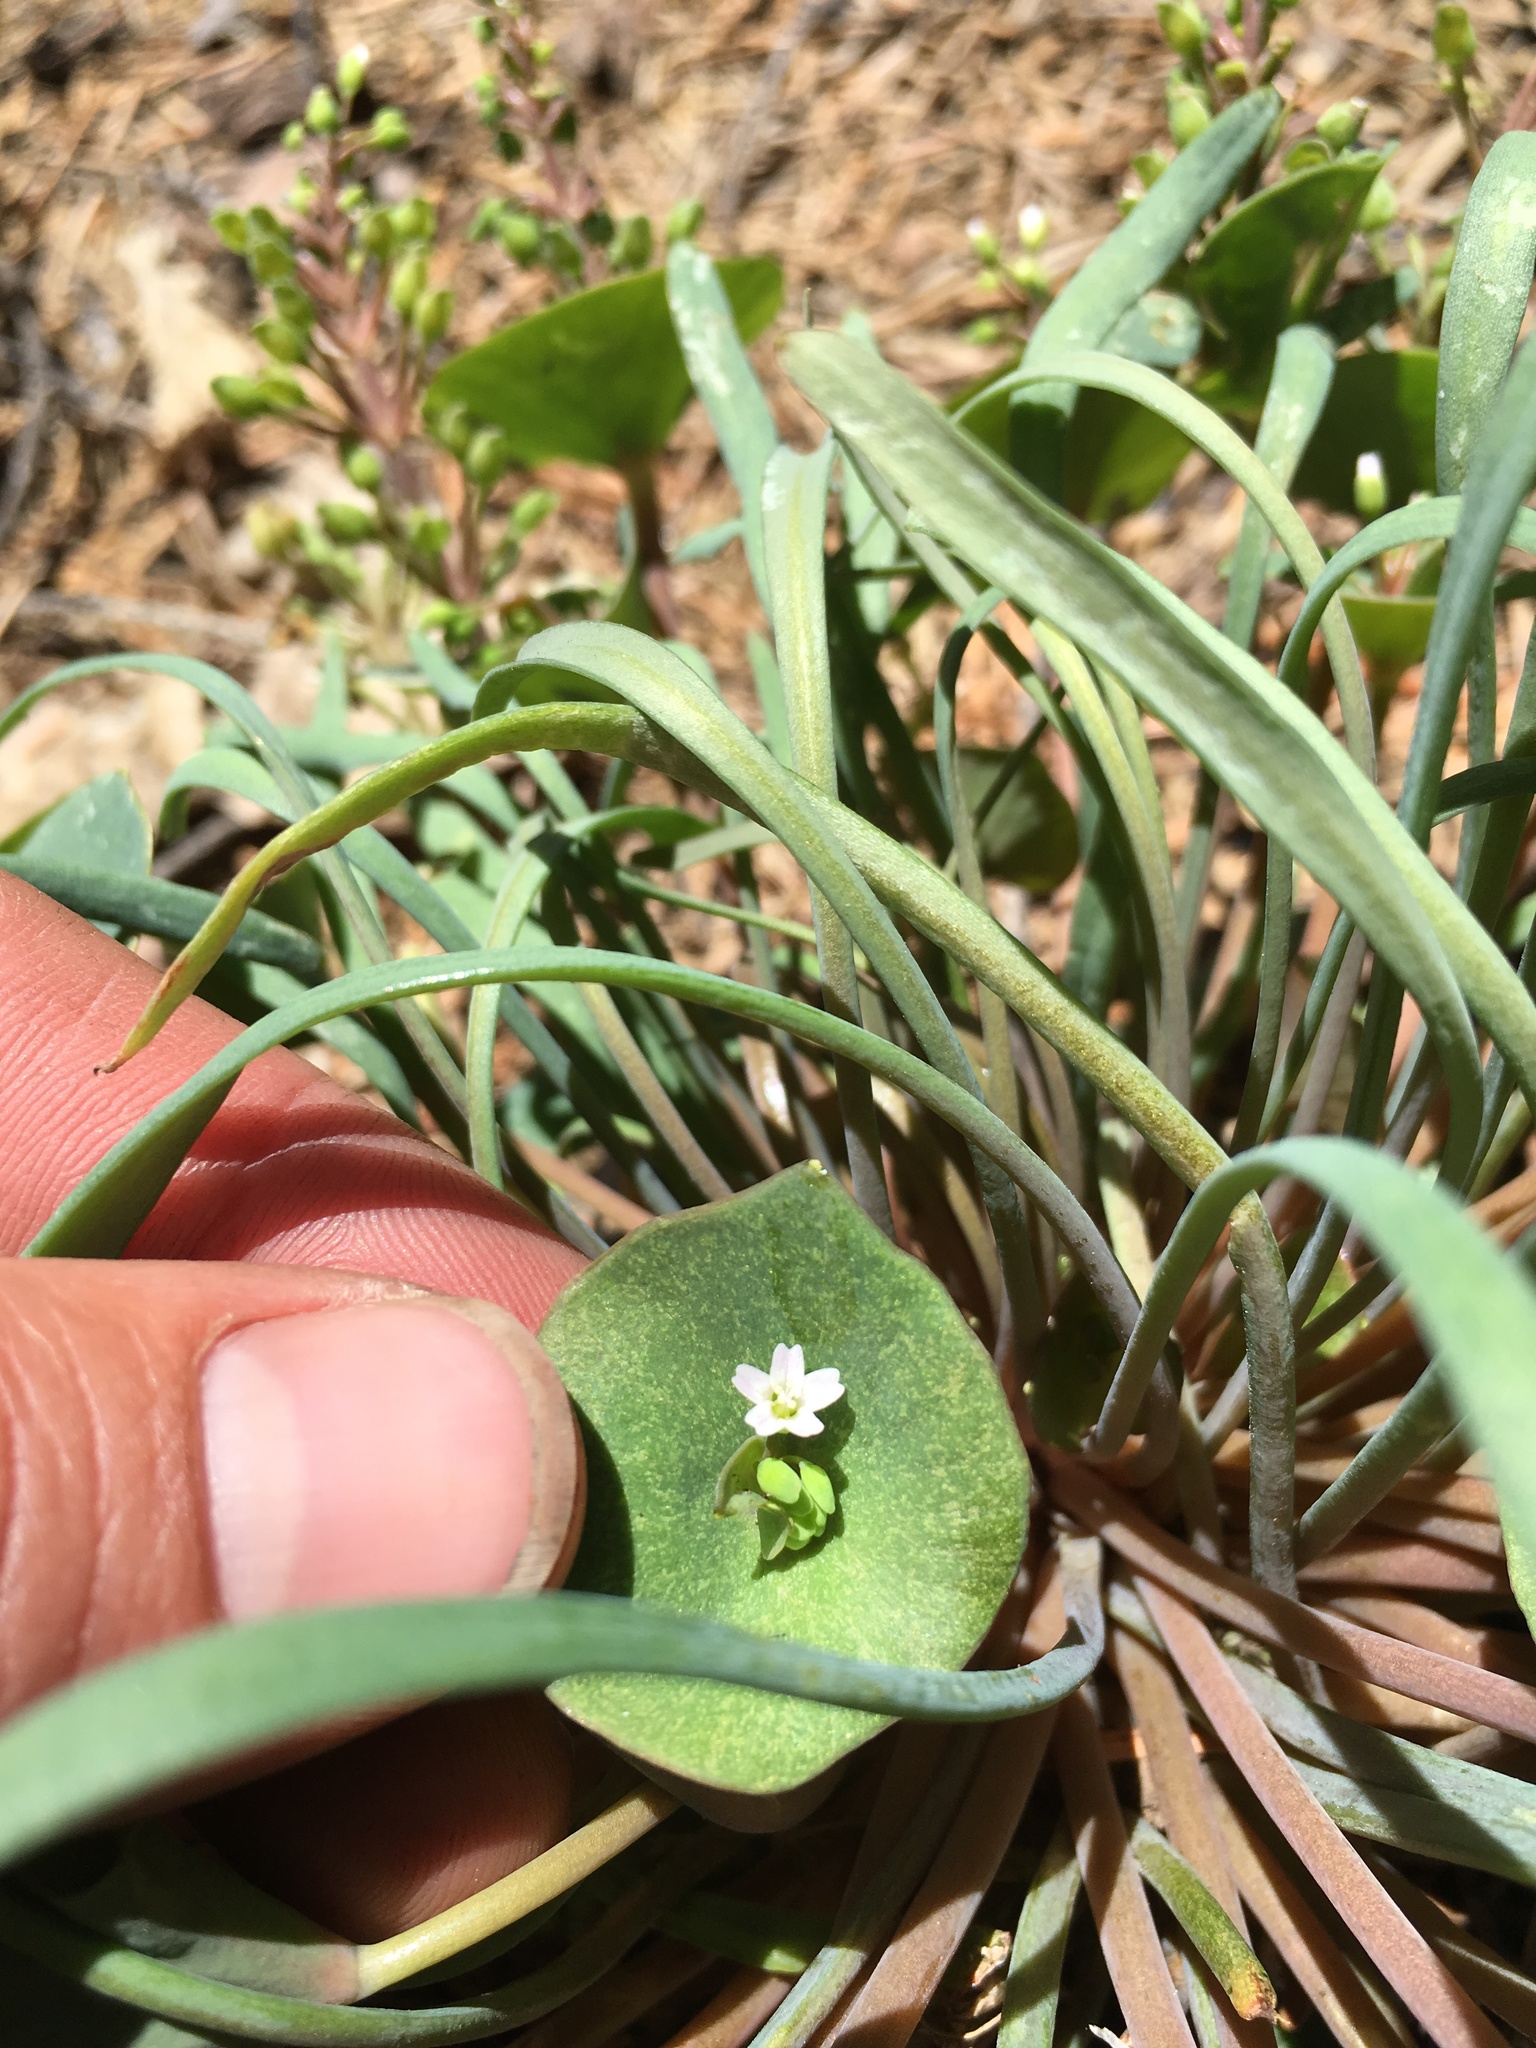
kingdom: Plantae
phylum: Tracheophyta
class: Magnoliopsida
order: Caryophyllales
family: Montiaceae
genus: Claytonia
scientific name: Claytonia perfoliata
